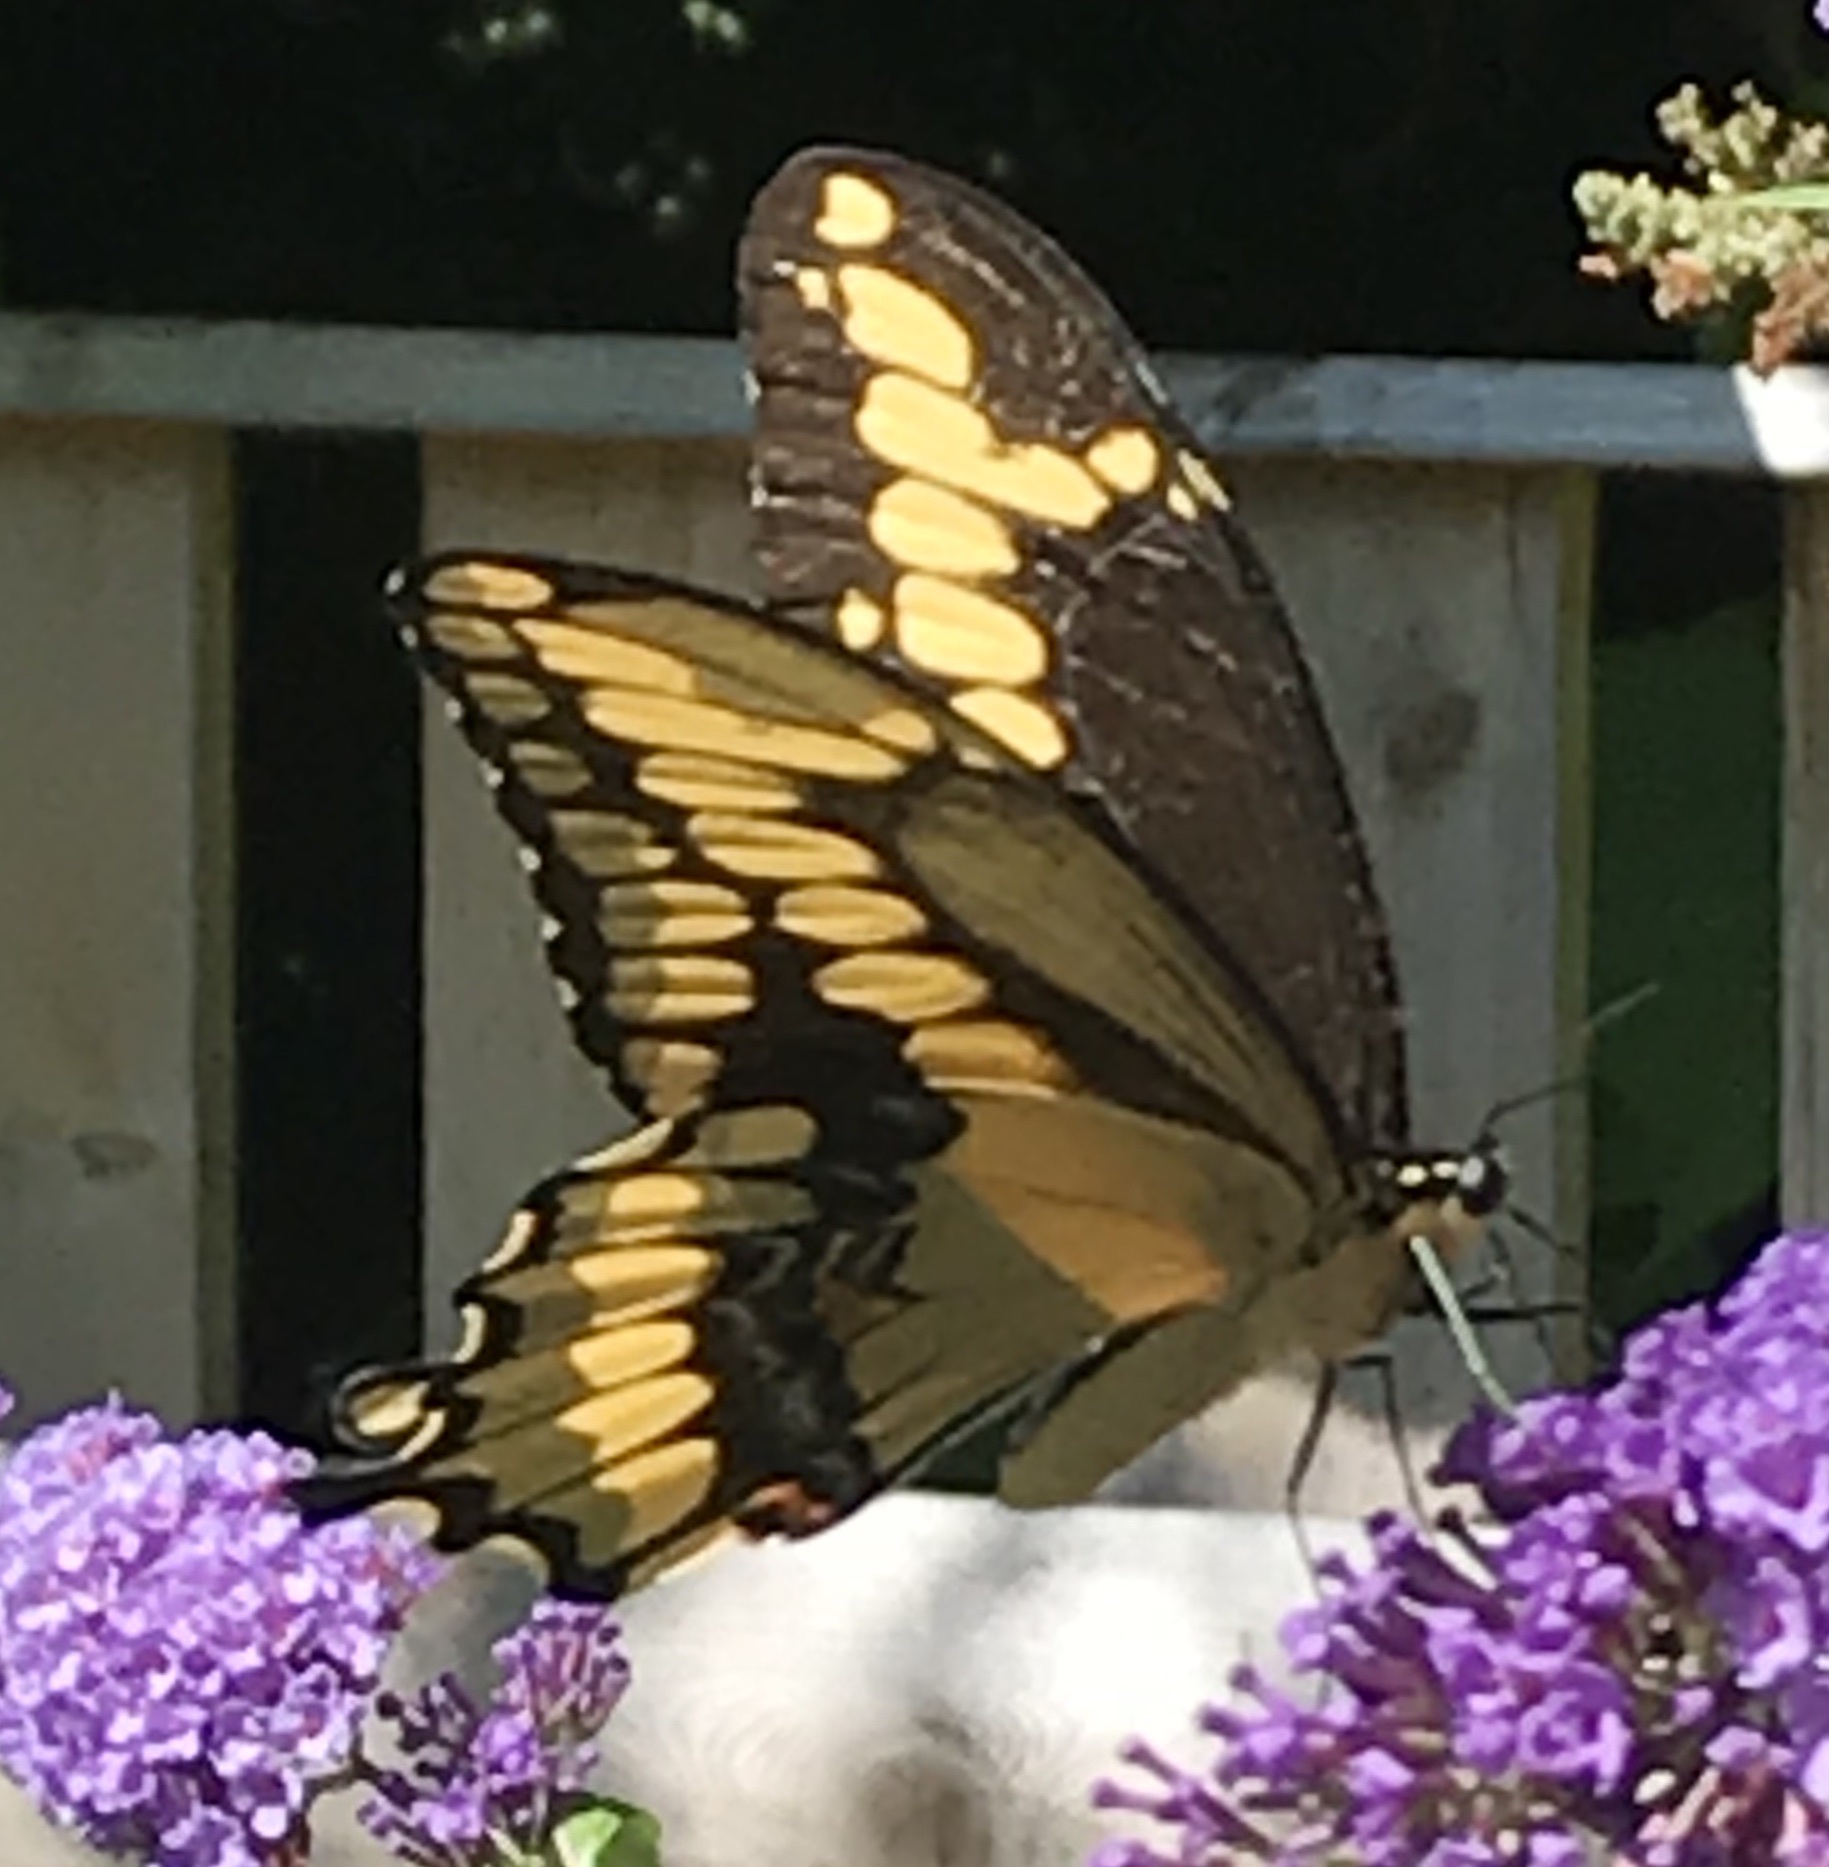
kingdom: Animalia
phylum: Arthropoda
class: Insecta
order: Lepidoptera
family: Papilionidae
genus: Papilio
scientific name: Papilio cresphontes
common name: Giant swallowtail
